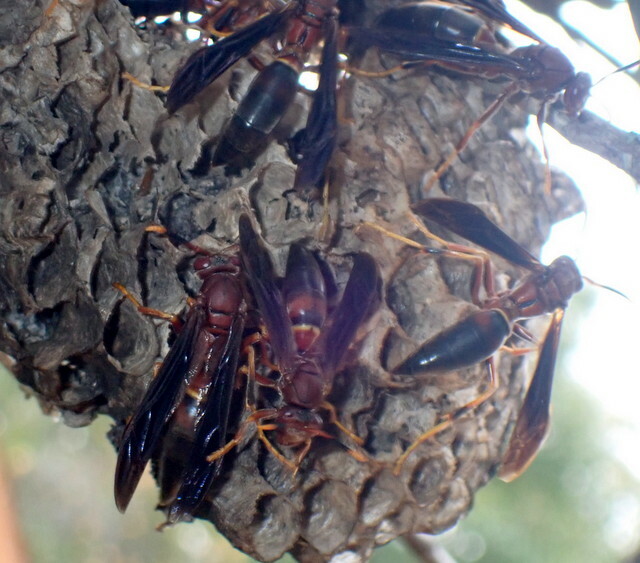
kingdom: Animalia
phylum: Arthropoda
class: Insecta
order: Hymenoptera
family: Eumenidae
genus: Polistes
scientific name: Polistes annularis
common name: Ringed paper wasp
